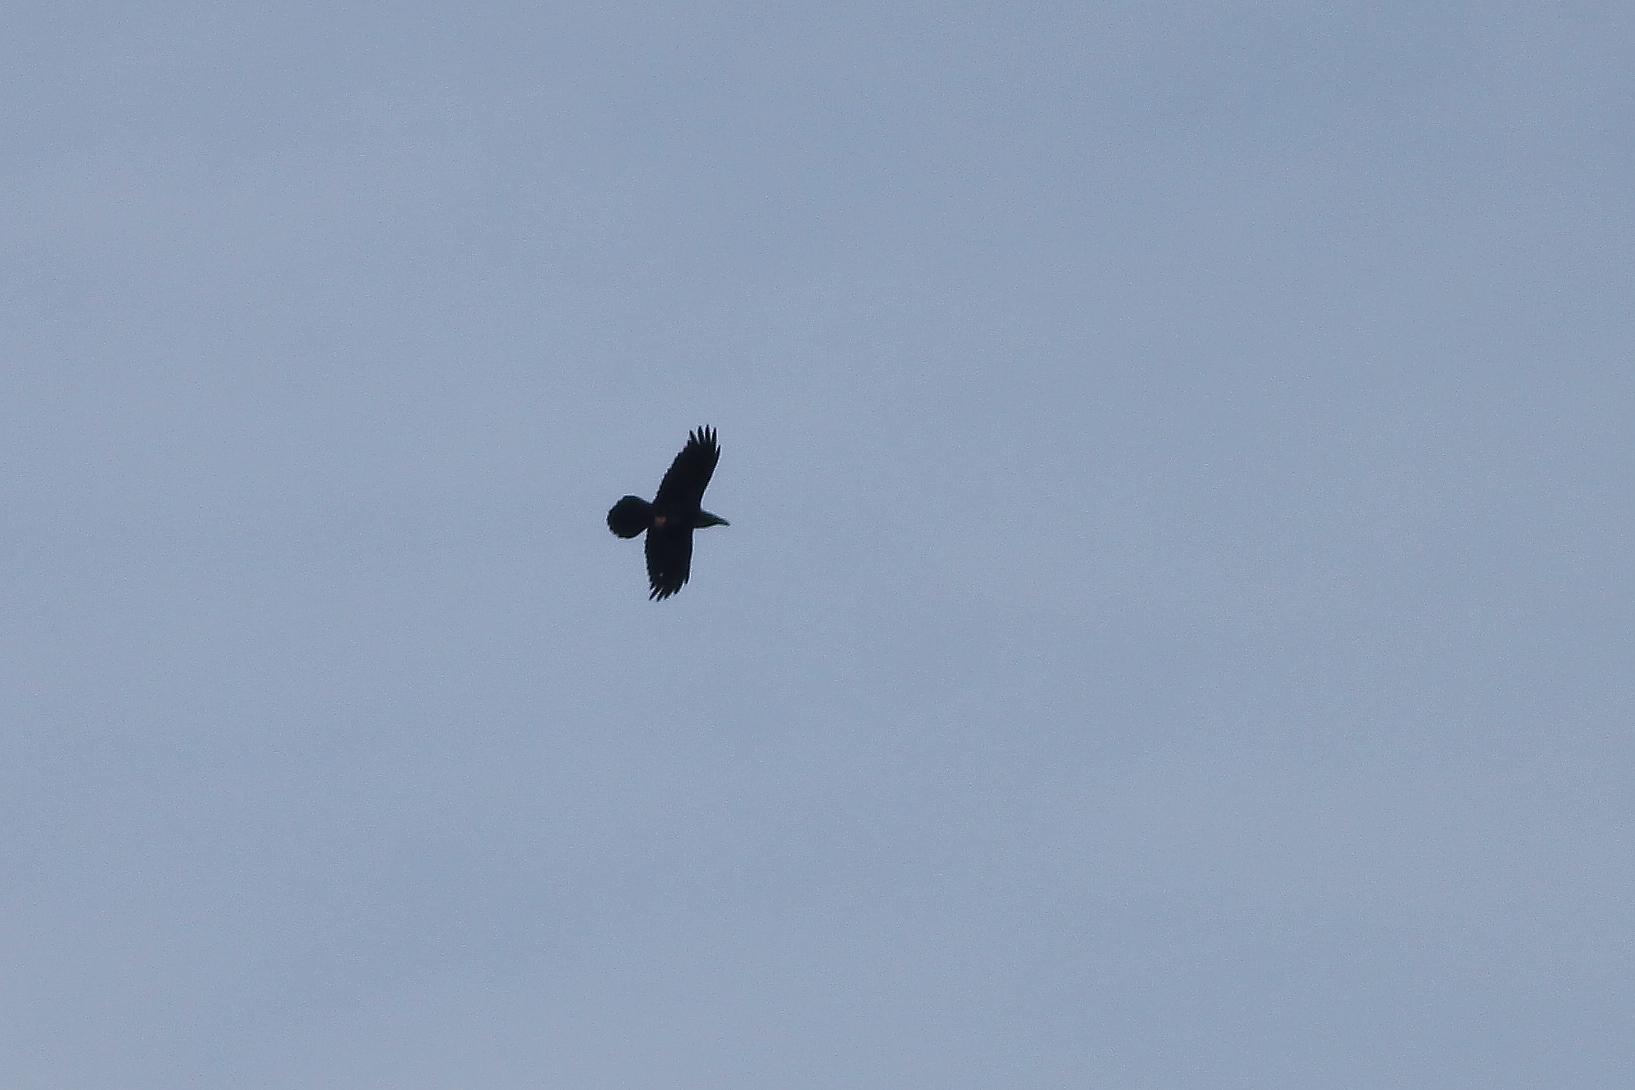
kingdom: Animalia
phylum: Chordata
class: Aves
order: Passeriformes
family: Corvidae
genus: Corvus
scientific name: Corvus corax
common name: Common raven
